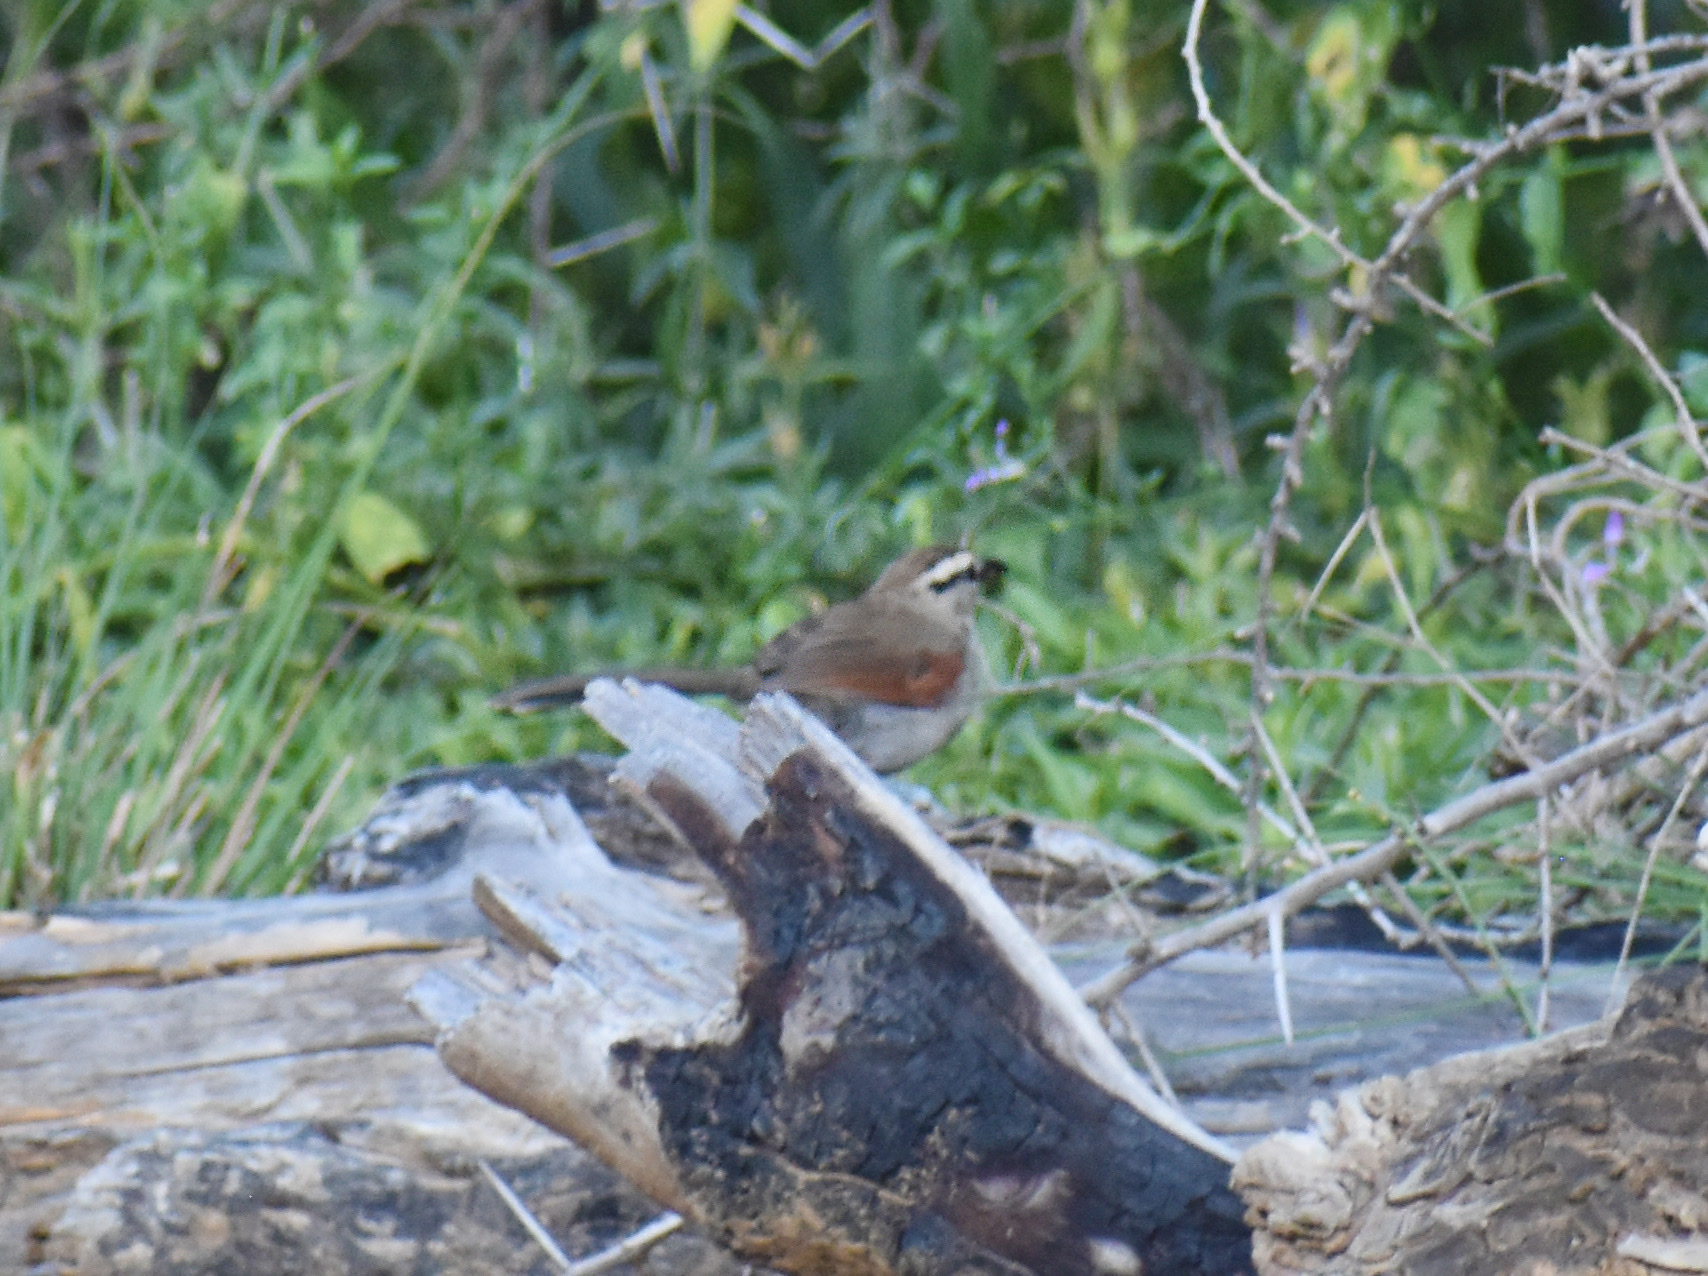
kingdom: Animalia
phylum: Chordata
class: Aves
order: Passeriformes
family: Malaconotidae
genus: Tchagra
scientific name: Tchagra australis
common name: Brown-crowned tchagra
